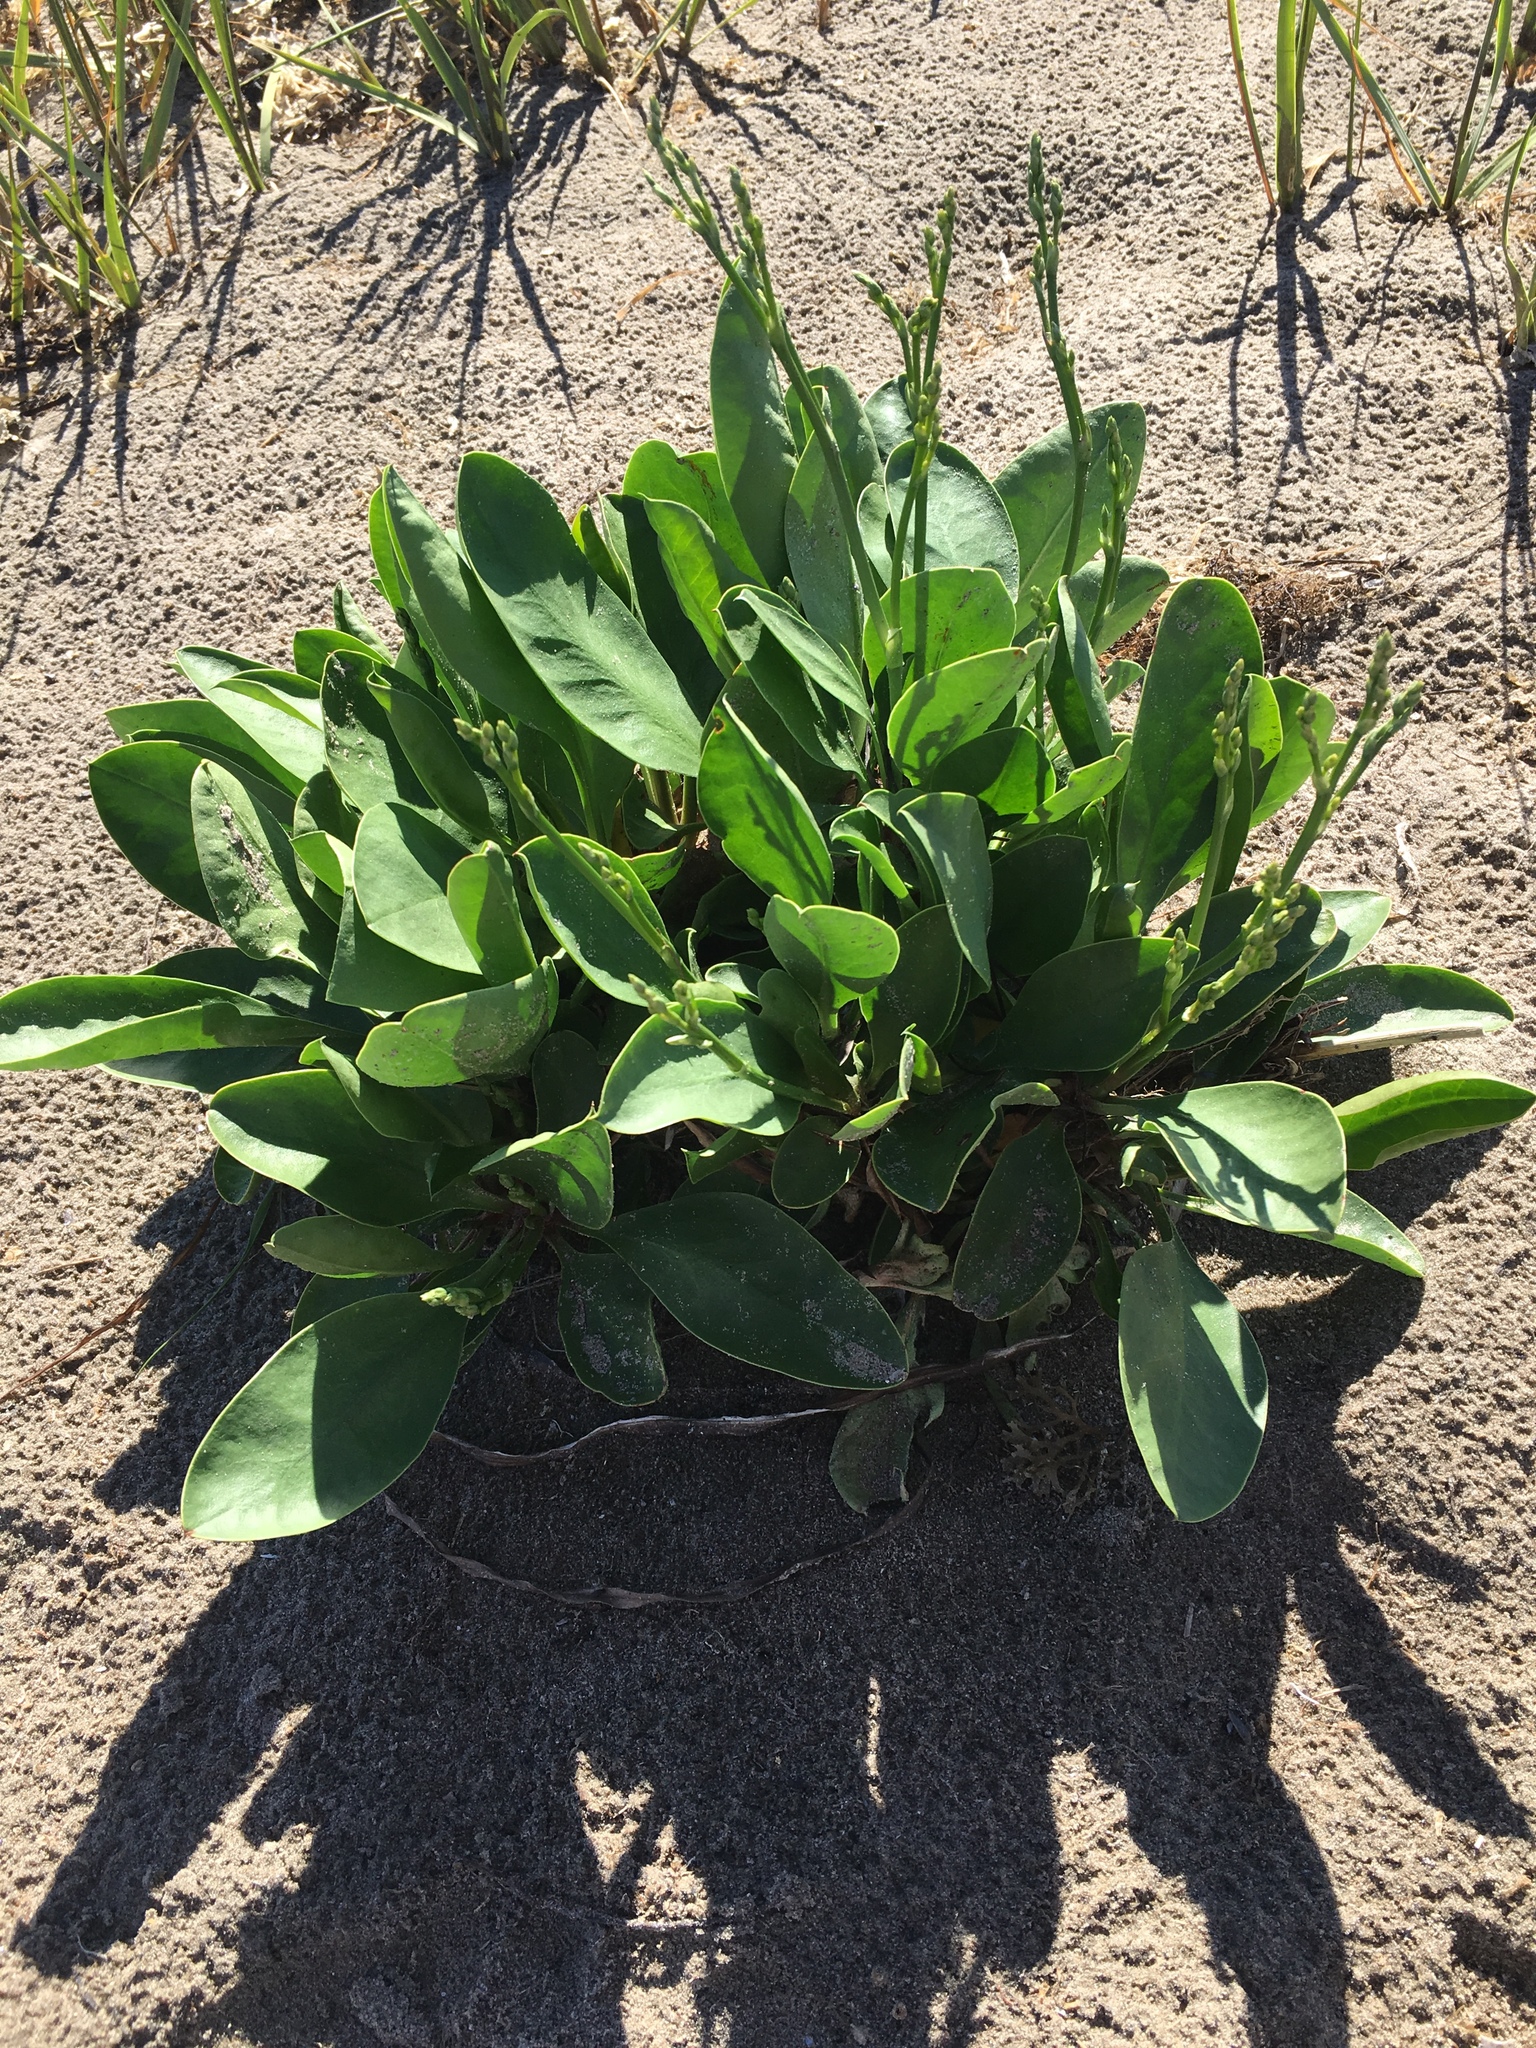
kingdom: Plantae
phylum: Tracheophyta
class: Magnoliopsida
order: Caryophyllales
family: Plumbaginaceae
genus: Limonium
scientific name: Limonium carolinianum
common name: Carolina sea lavender
